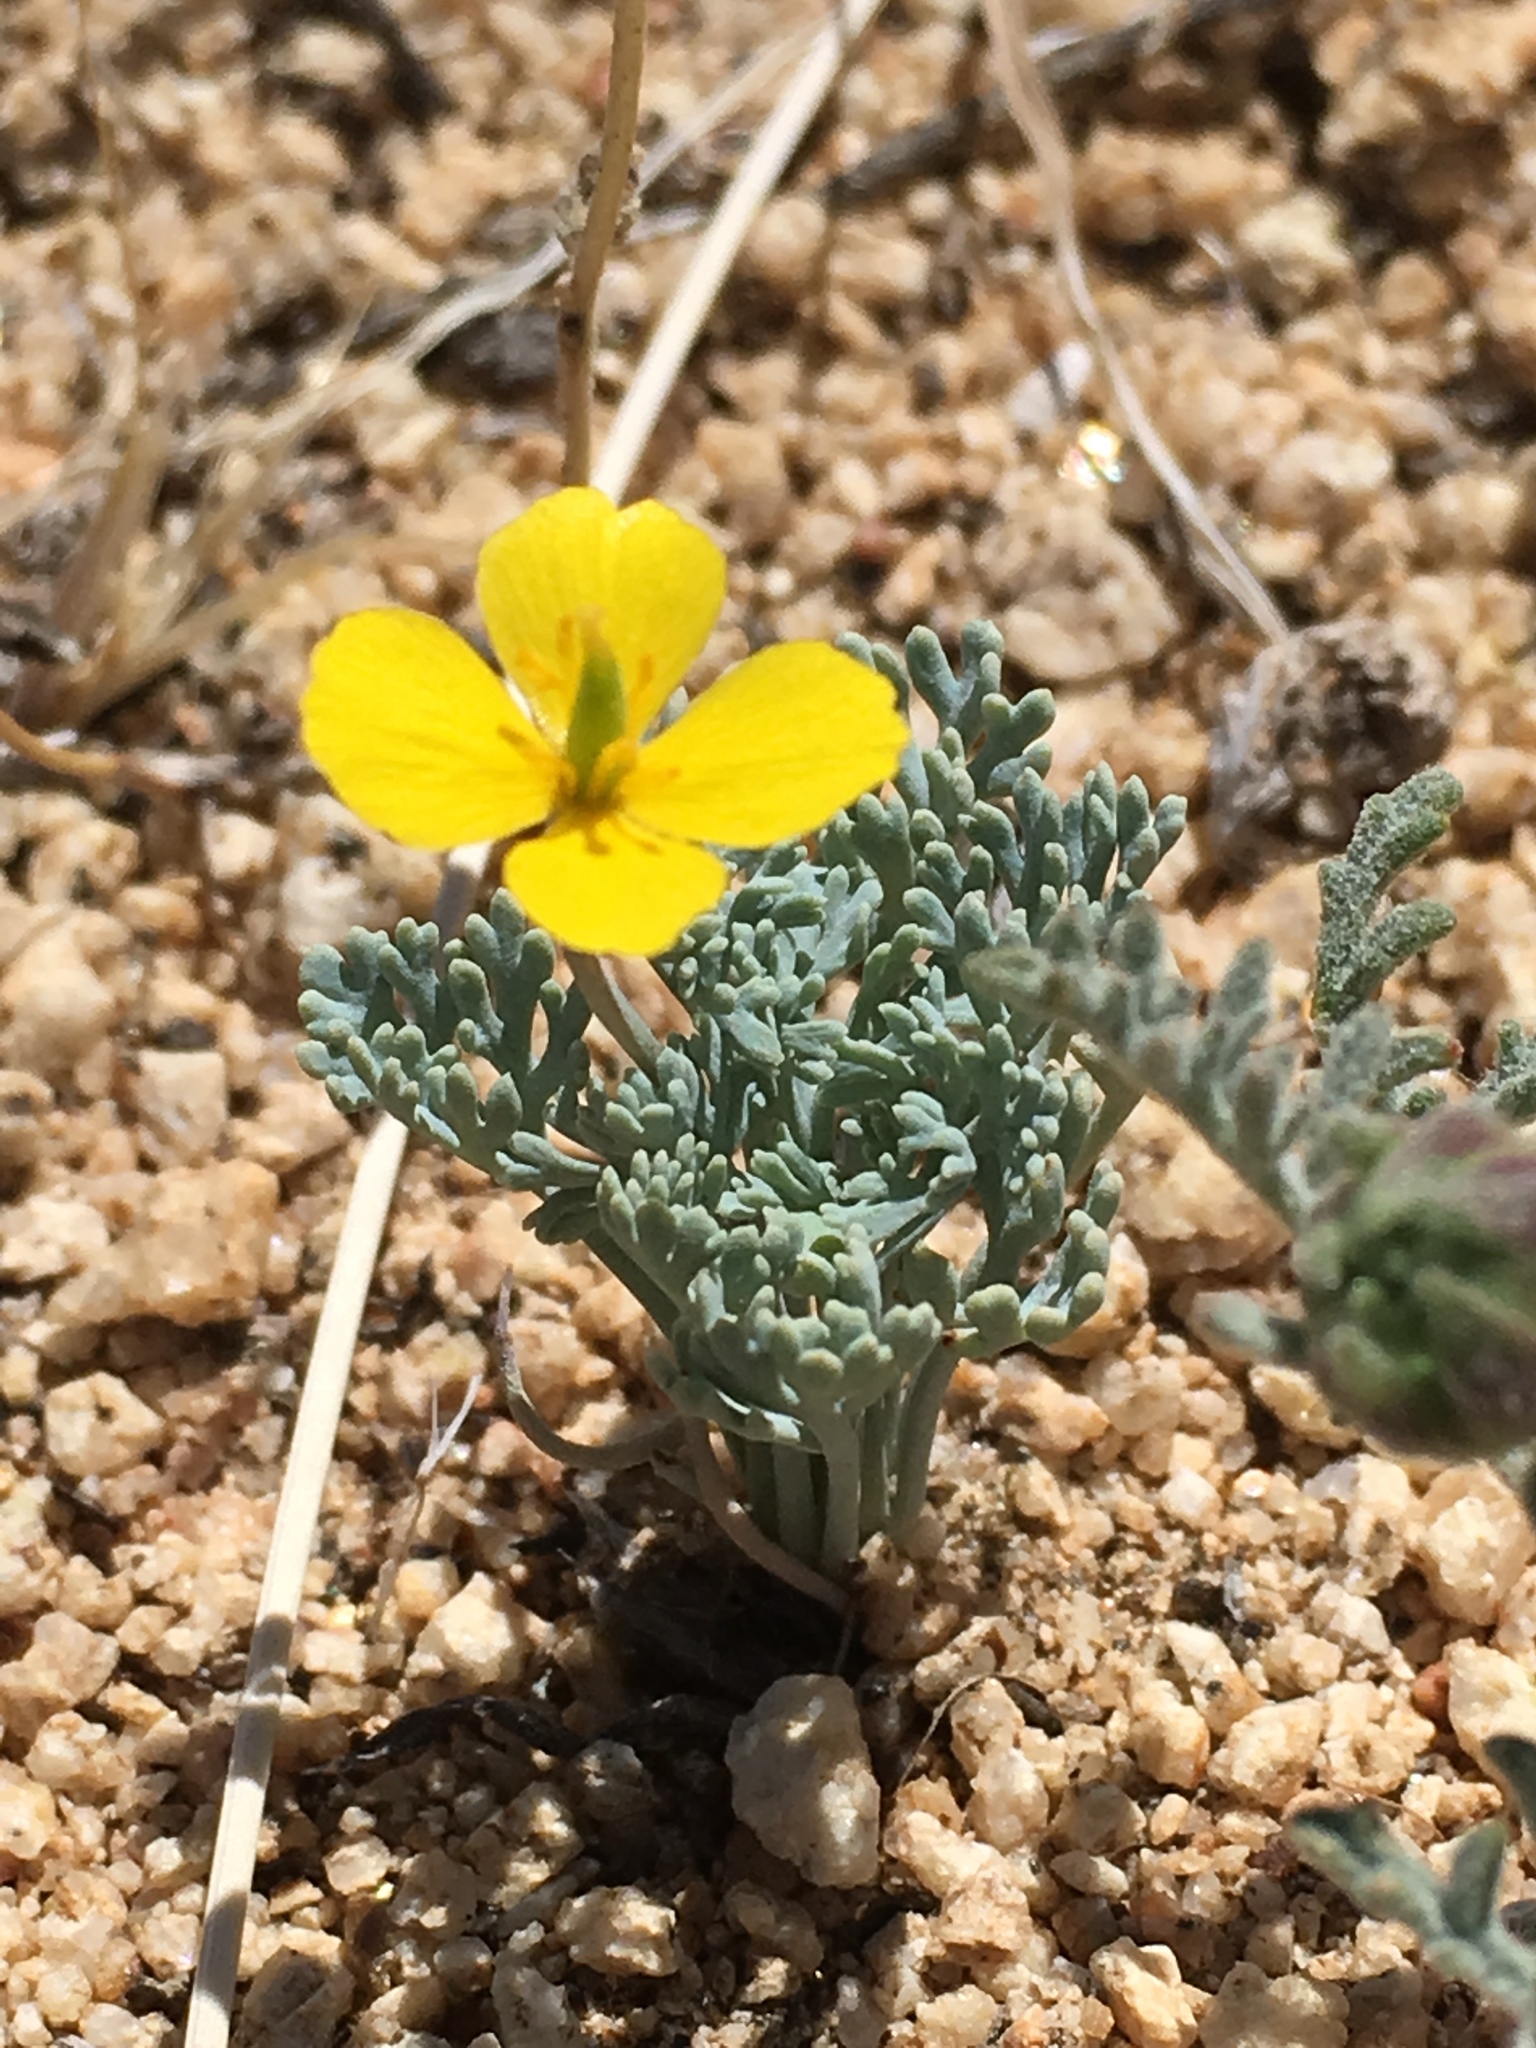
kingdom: Plantae
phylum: Tracheophyta
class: Magnoliopsida
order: Ranunculales
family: Papaveraceae
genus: Eschscholzia
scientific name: Eschscholzia minutiflora
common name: Small-flower california-poppy
